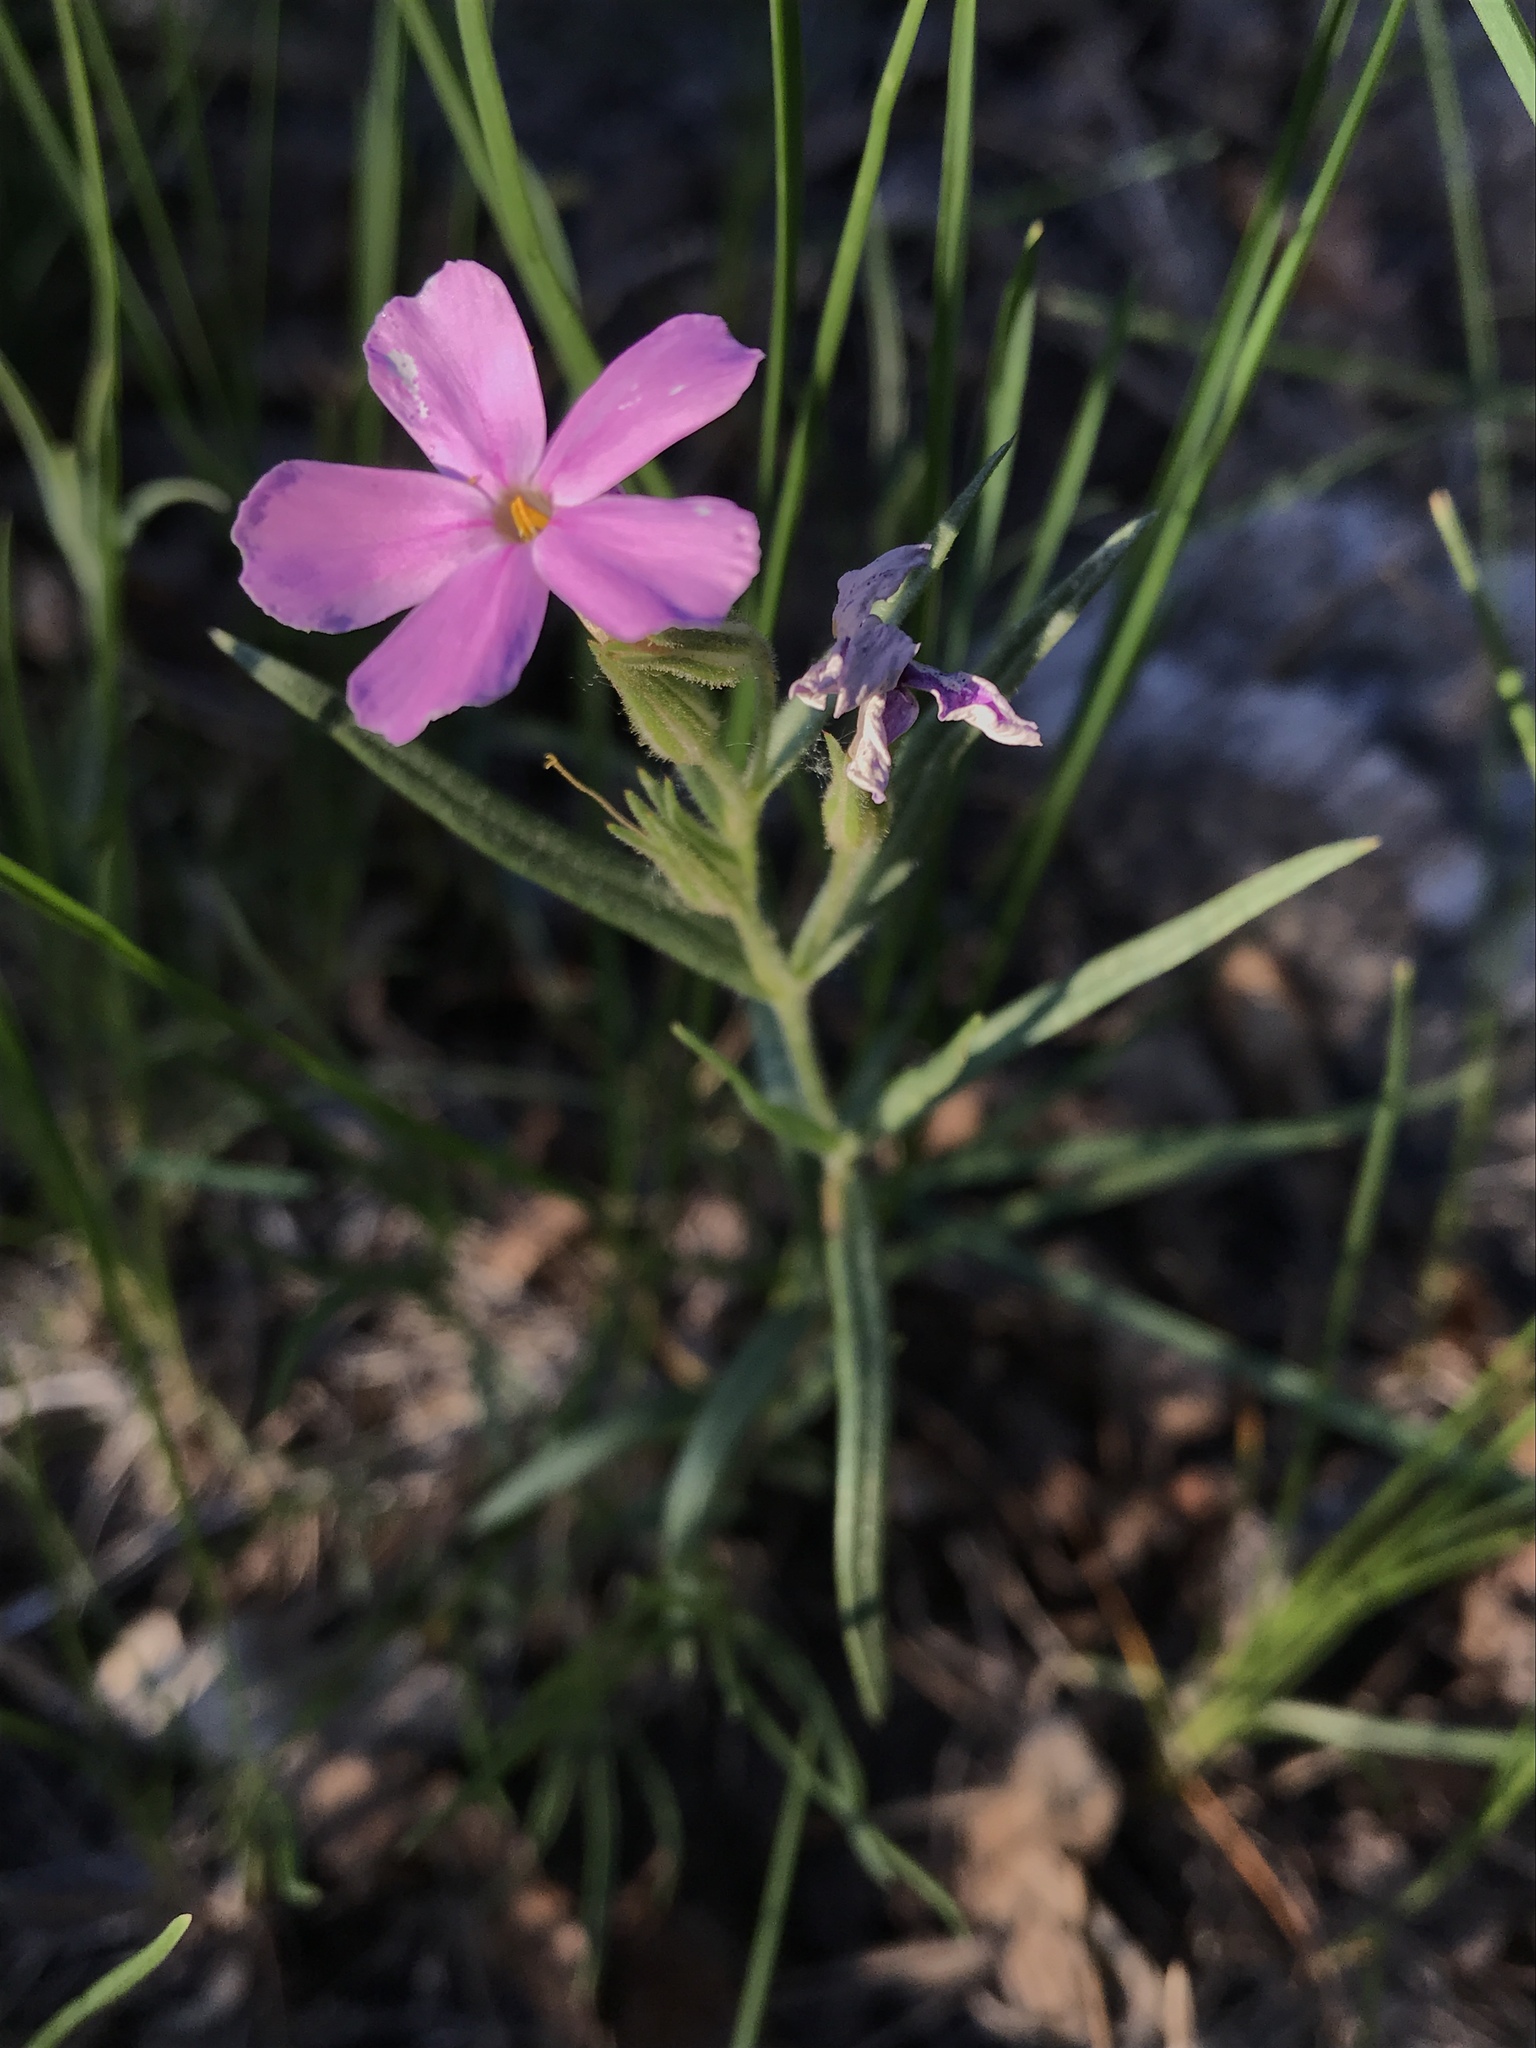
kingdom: Plantae
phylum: Tracheophyta
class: Magnoliopsida
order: Ericales
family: Polemoniaceae
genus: Phlox
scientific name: Phlox longifolia
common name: Longleaf phlox
